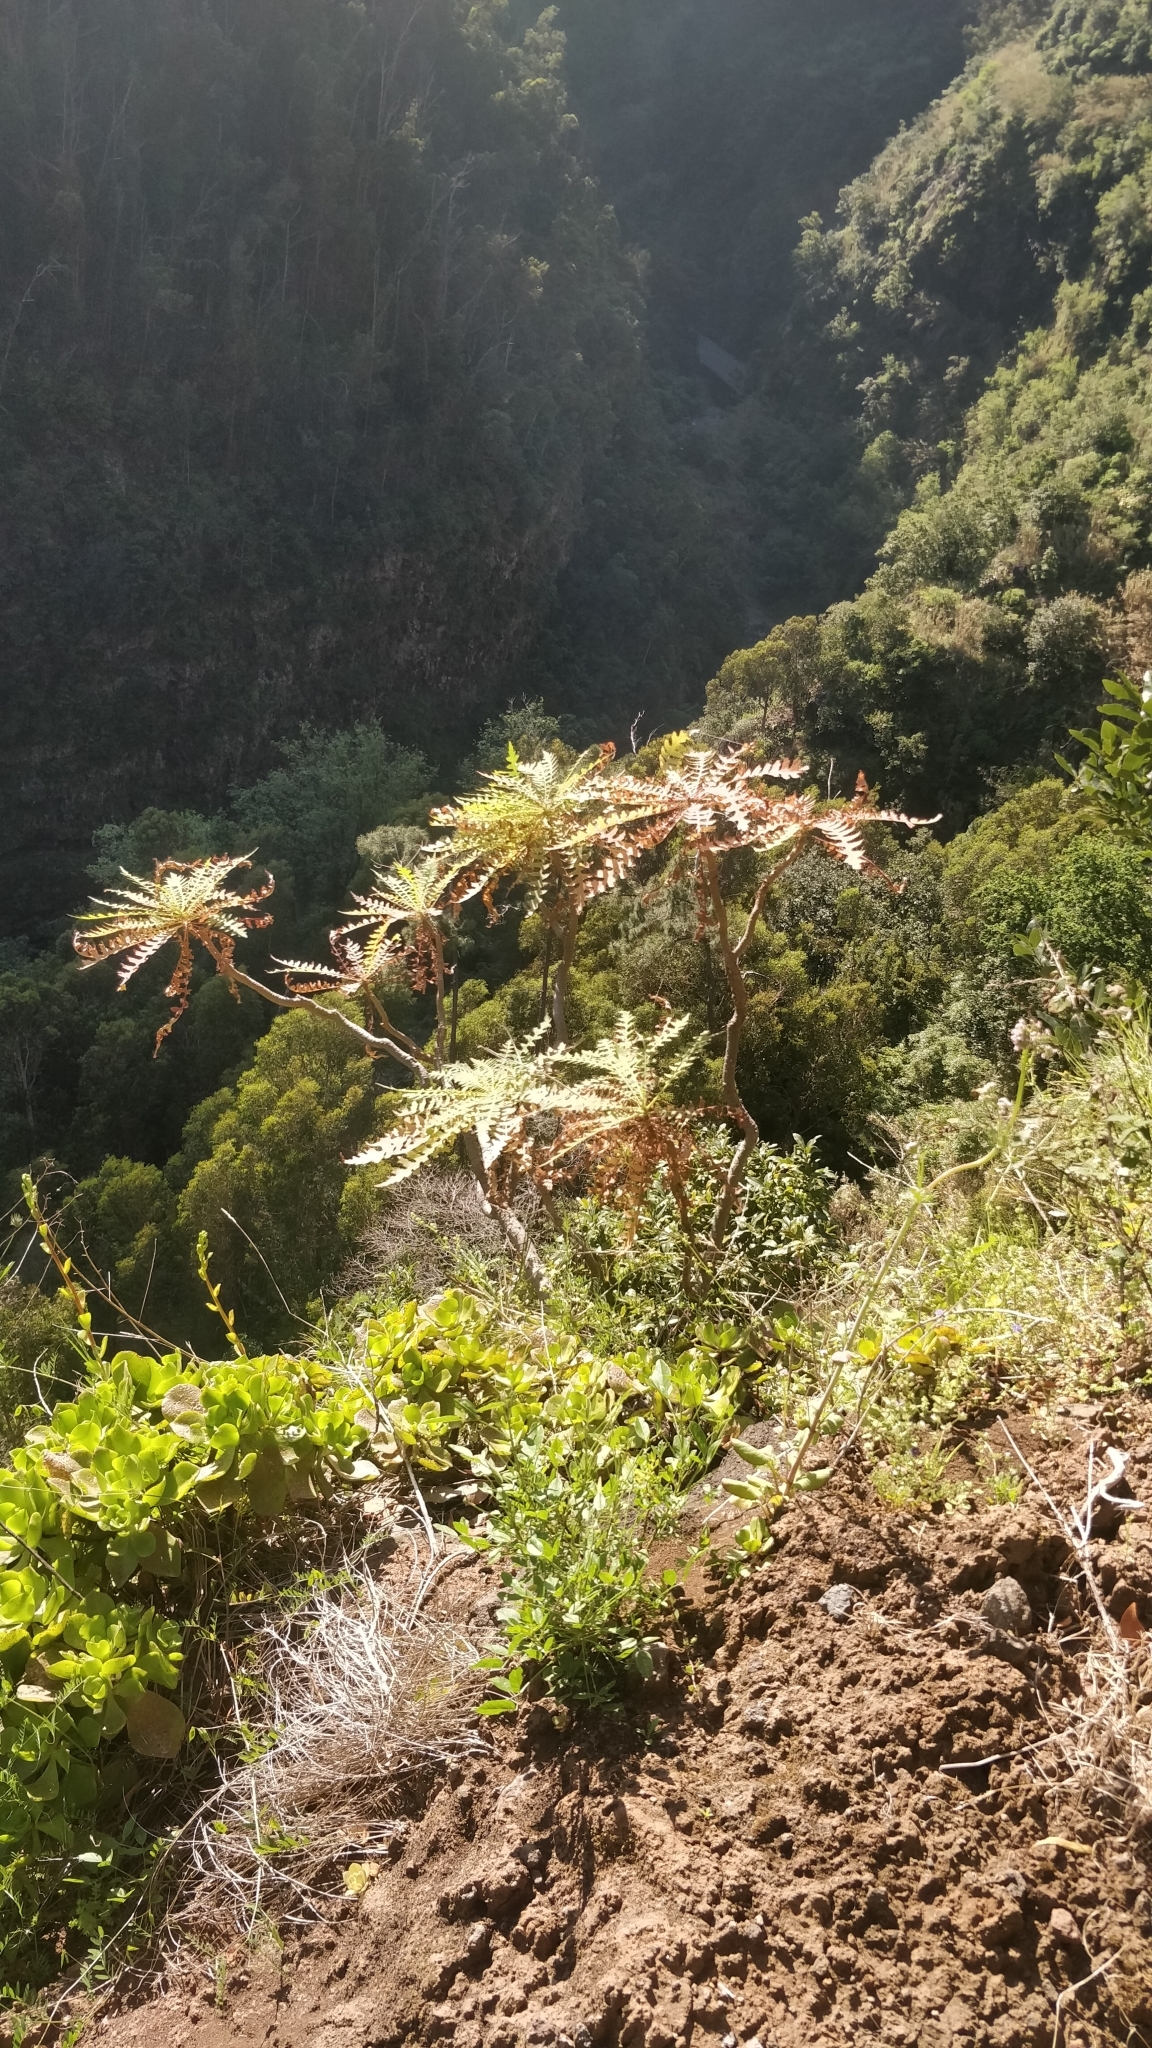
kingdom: Plantae
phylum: Tracheophyta
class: Magnoliopsida
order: Asterales
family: Asteraceae
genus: Sonchus
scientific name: Sonchus pinnatus
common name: Wing-leaved sow-thistle
